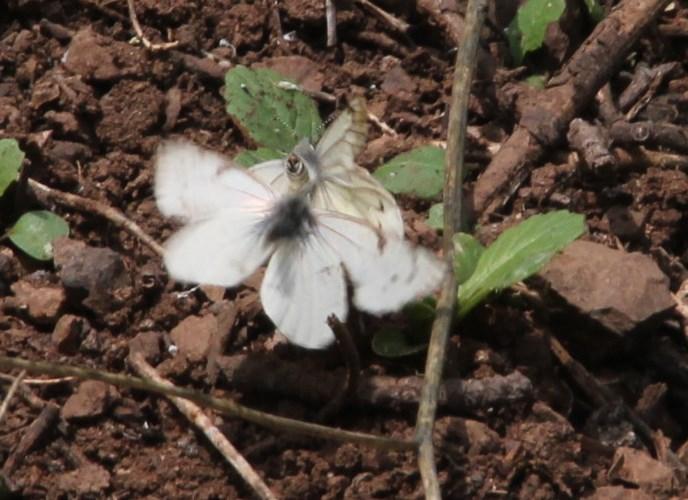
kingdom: Animalia
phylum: Arthropoda
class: Insecta
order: Lepidoptera
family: Pieridae
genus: Tatochila
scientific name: Tatochila mercedis
